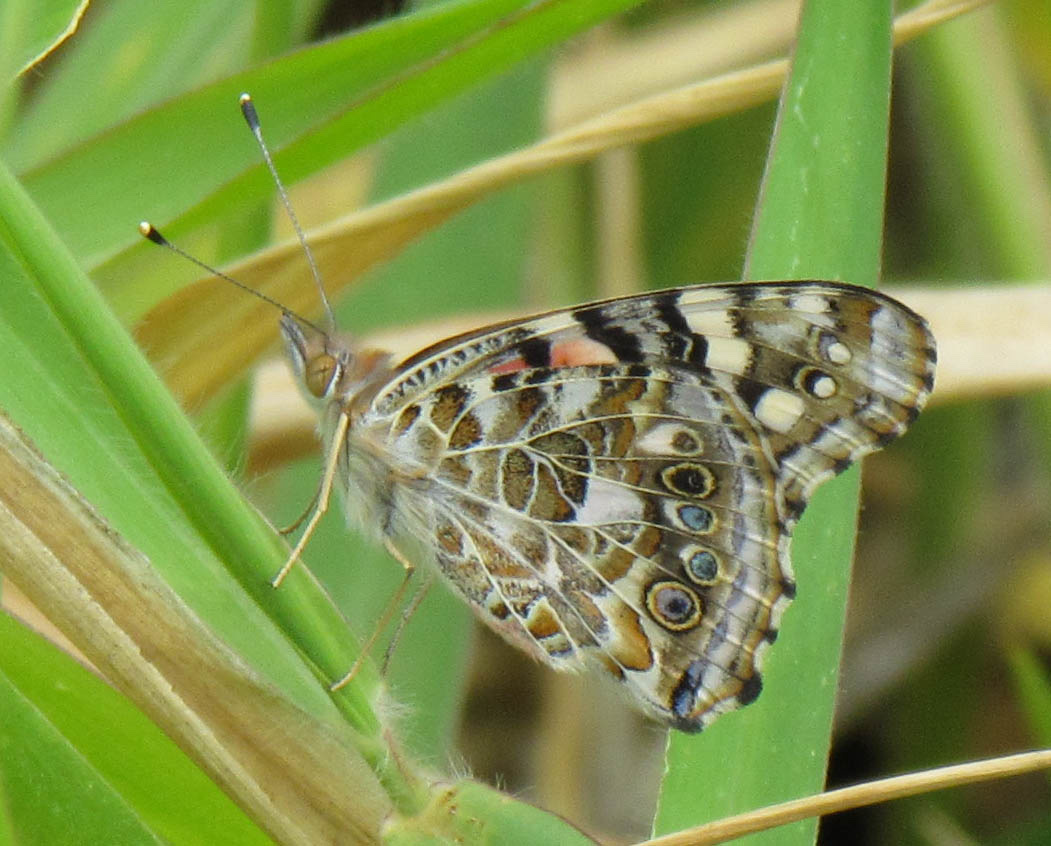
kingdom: Animalia
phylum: Arthropoda
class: Insecta
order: Lepidoptera
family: Nymphalidae
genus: Vanessa
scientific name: Vanessa cardui
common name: Painted lady
